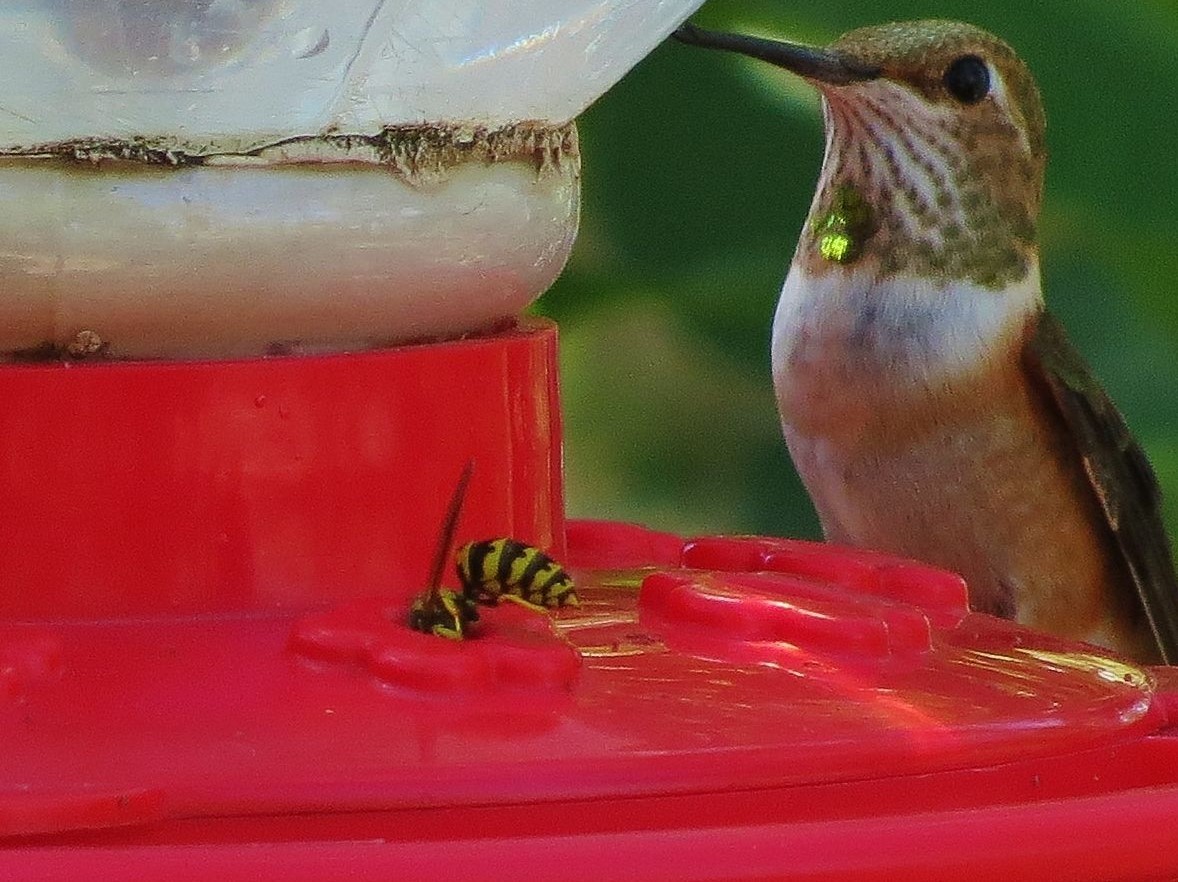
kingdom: Animalia
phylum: Arthropoda
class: Insecta
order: Hymenoptera
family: Vespidae
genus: Vespula
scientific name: Vespula pensylvanica
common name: Western yellowjacket
